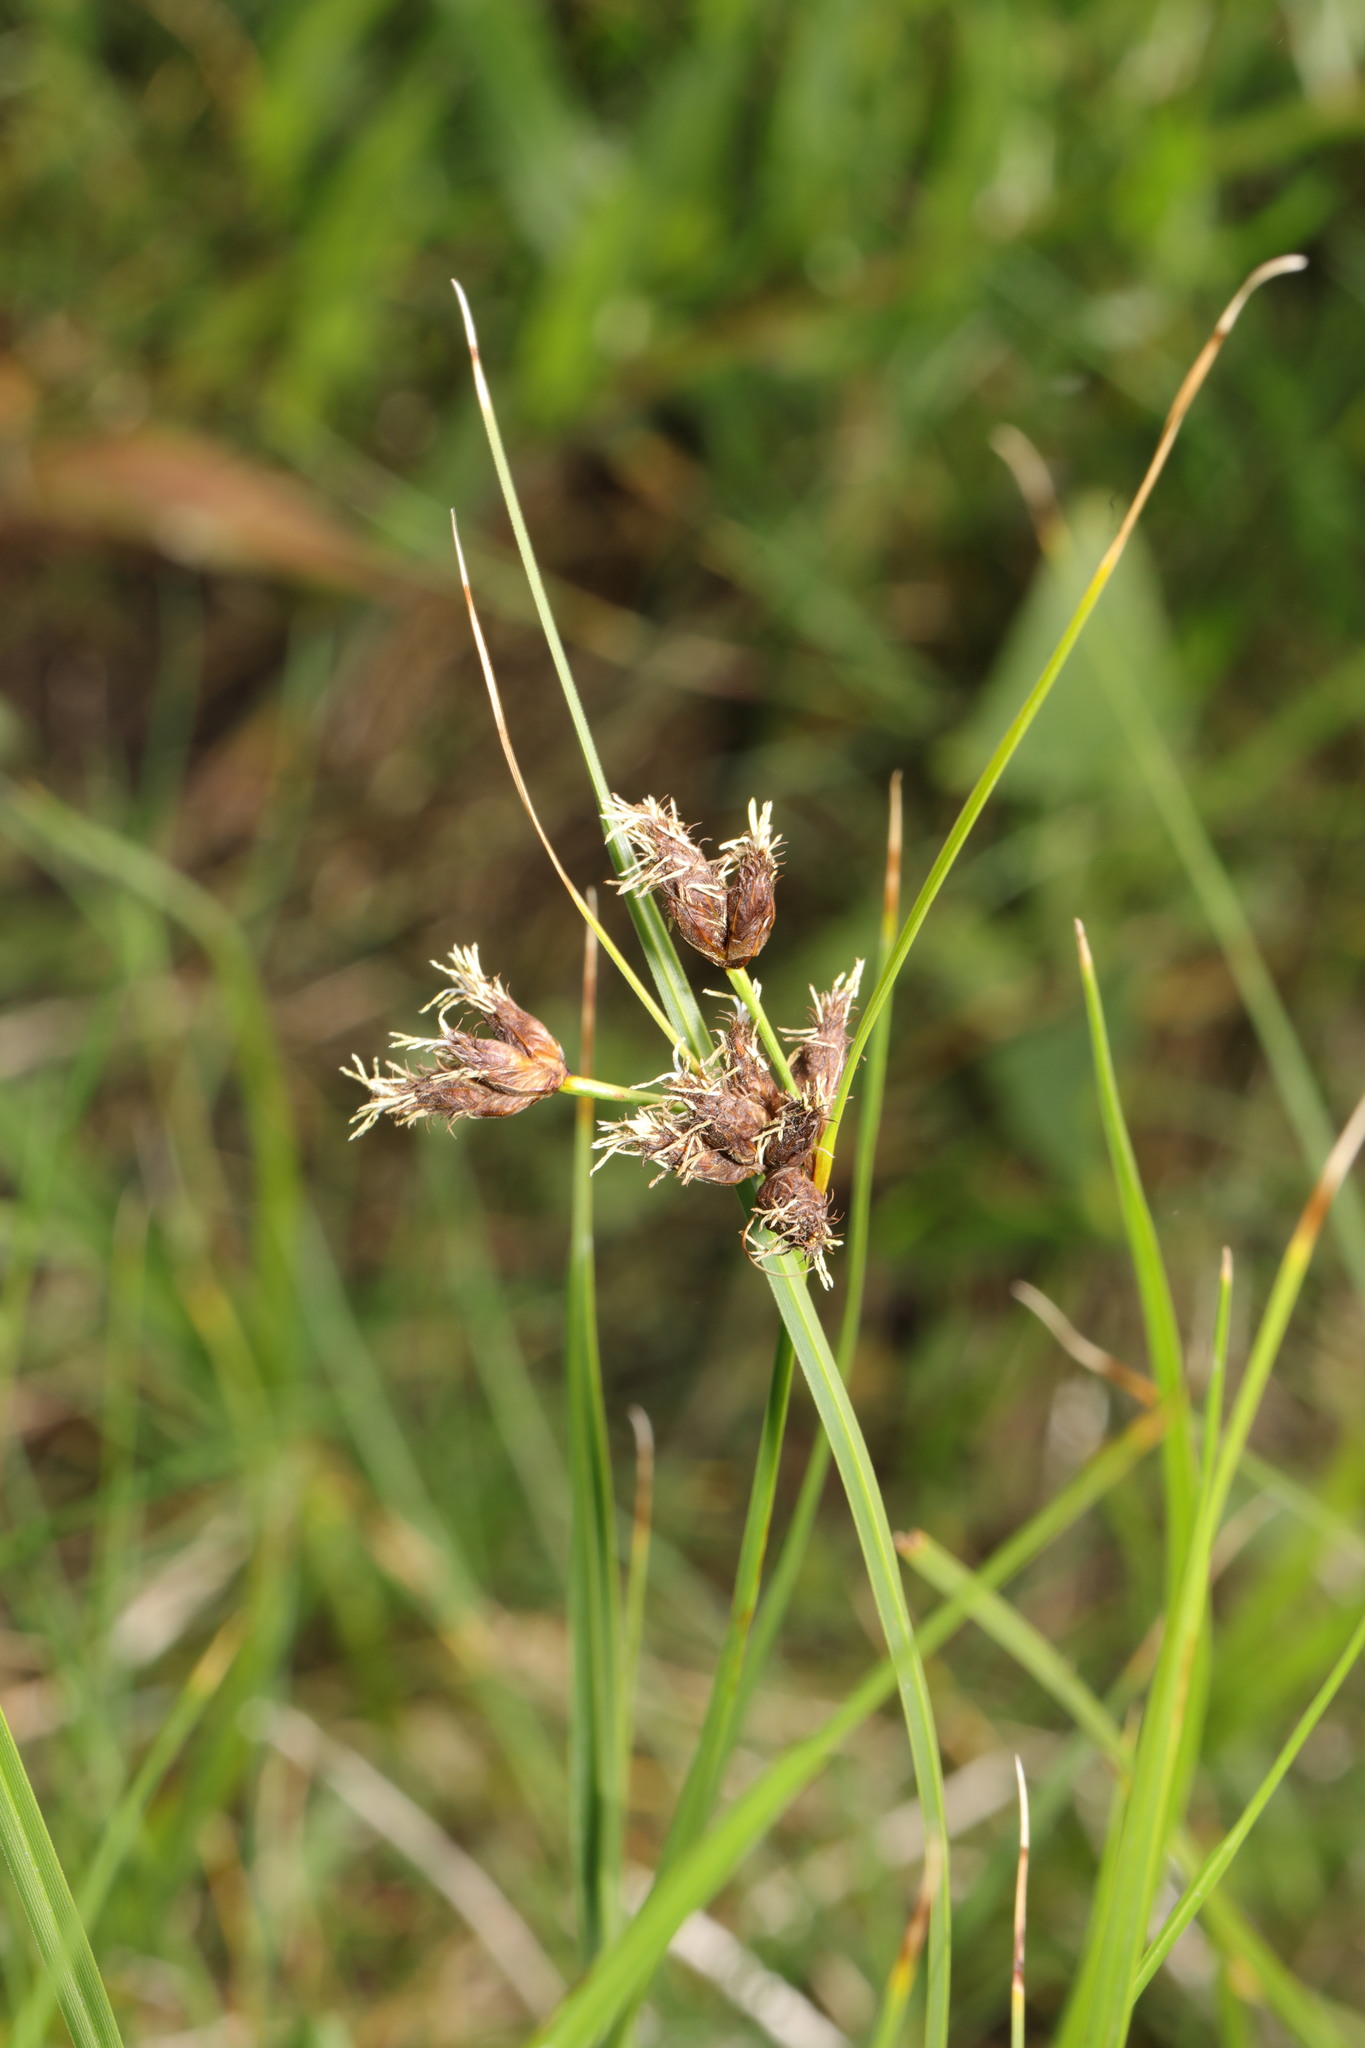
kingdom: Plantae
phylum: Tracheophyta
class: Liliopsida
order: Poales
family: Cyperaceae
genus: Bolboschoenus
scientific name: Bolboschoenus maritimus
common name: Sea club-rush
